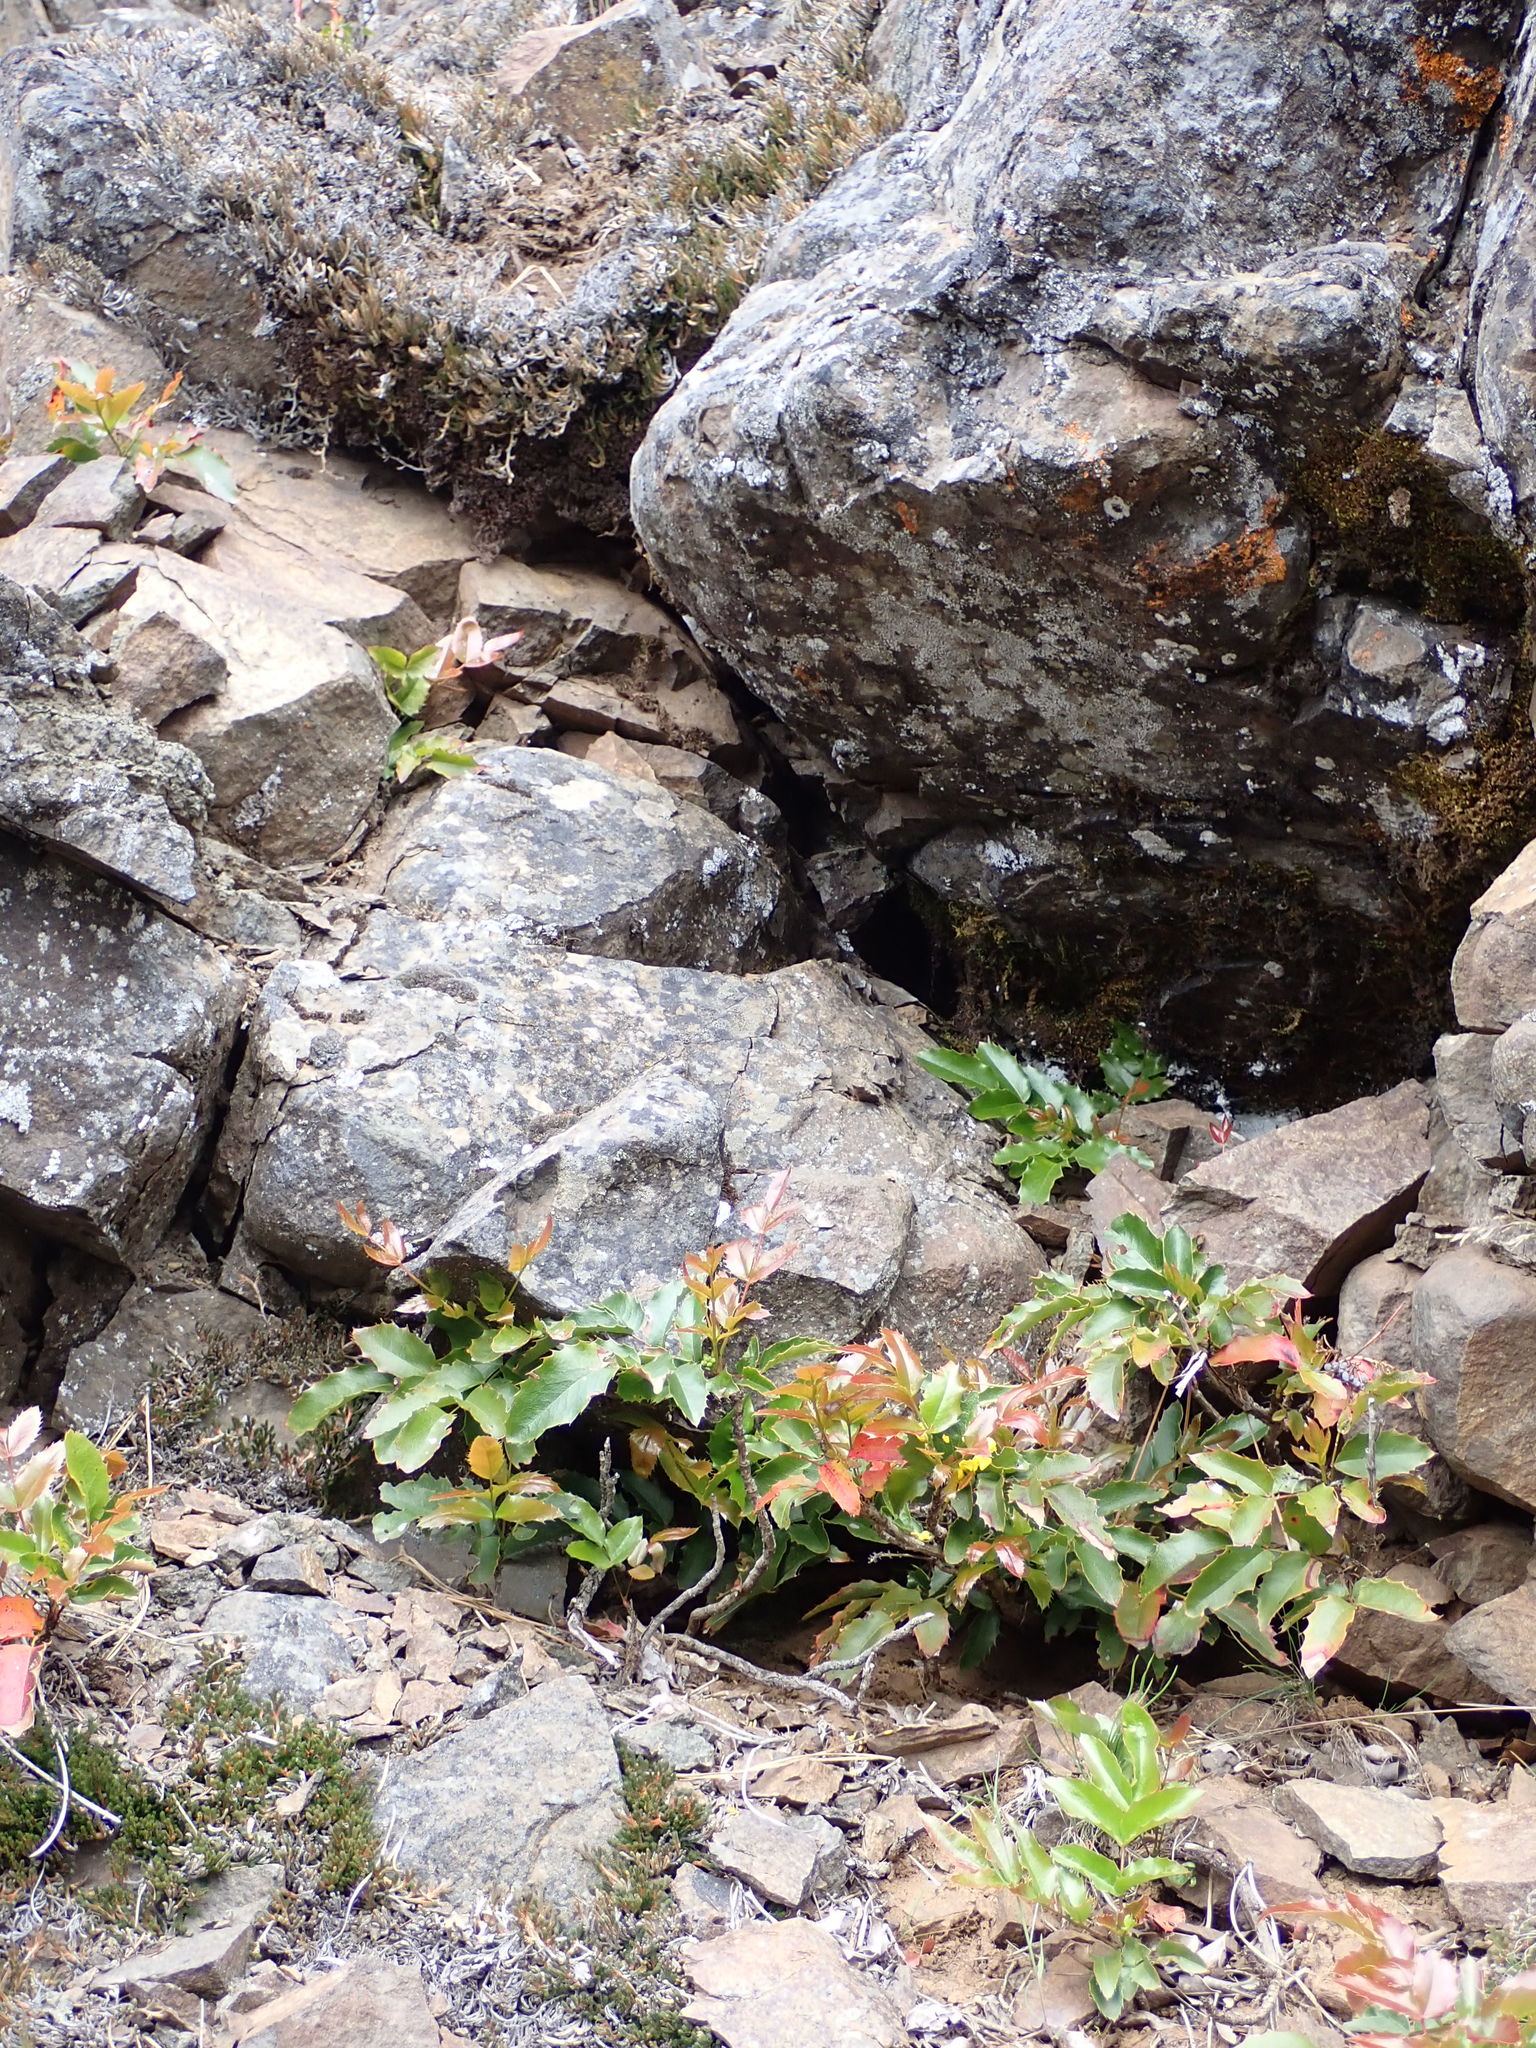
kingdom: Plantae
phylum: Tracheophyta
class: Magnoliopsida
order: Ranunculales
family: Berberidaceae
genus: Mahonia
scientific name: Mahonia repens
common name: Creeping oregon-grape
